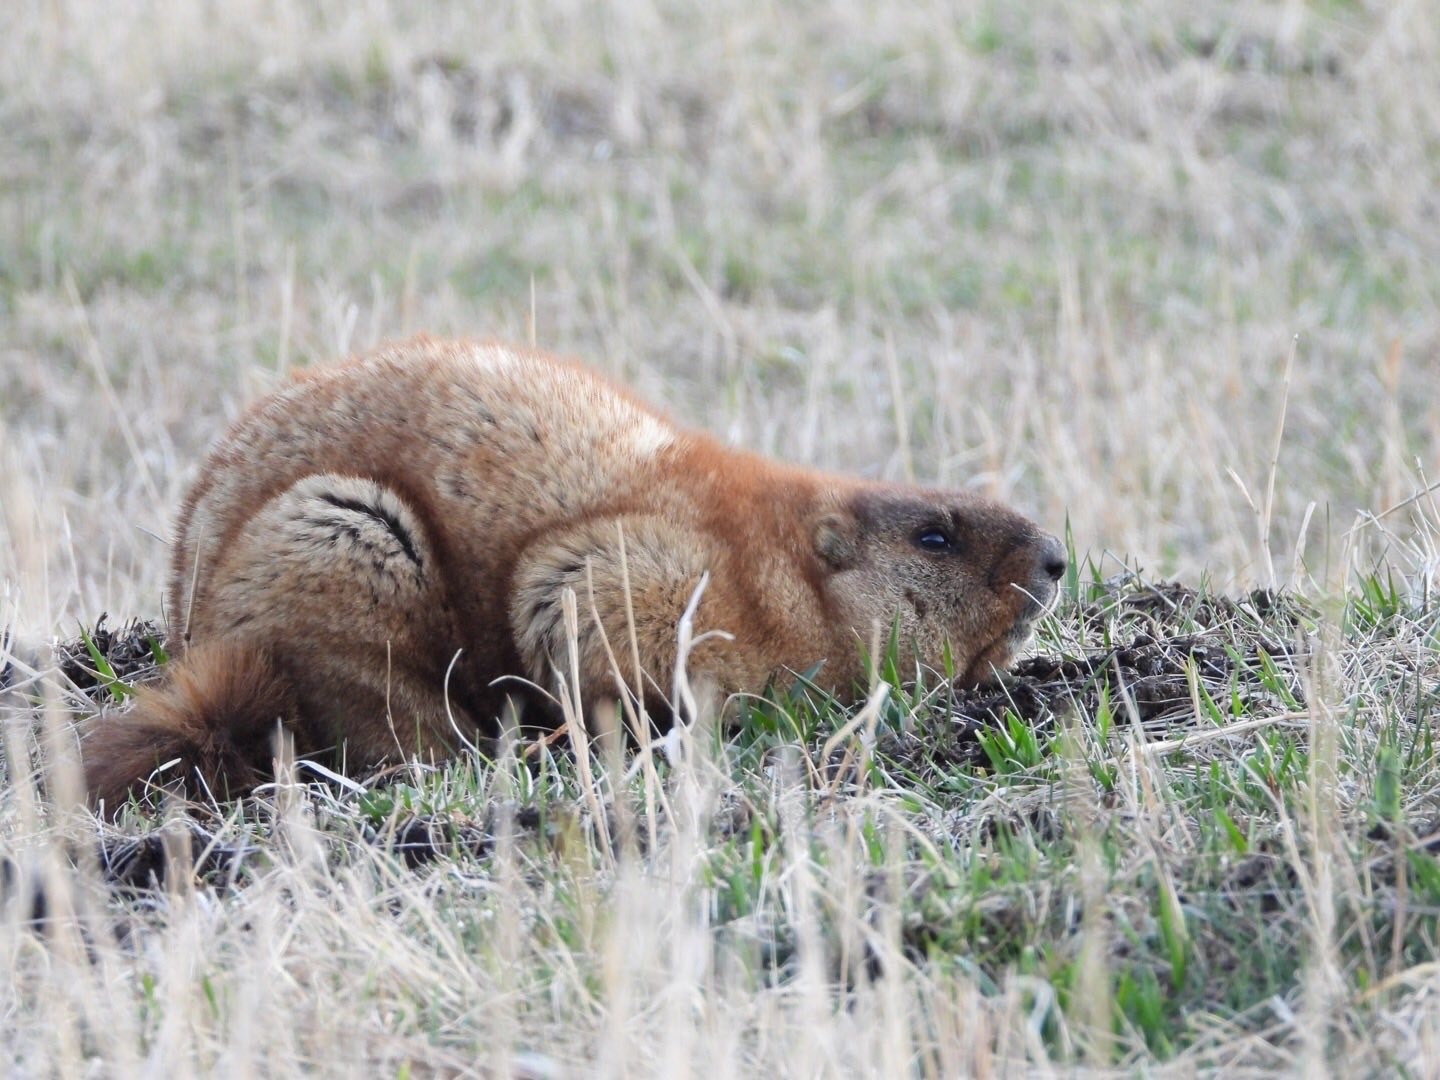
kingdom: Animalia
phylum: Chordata
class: Mammalia
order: Rodentia
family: Sciuridae
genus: Marmota
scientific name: Marmota baibacina
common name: Gray marmot
